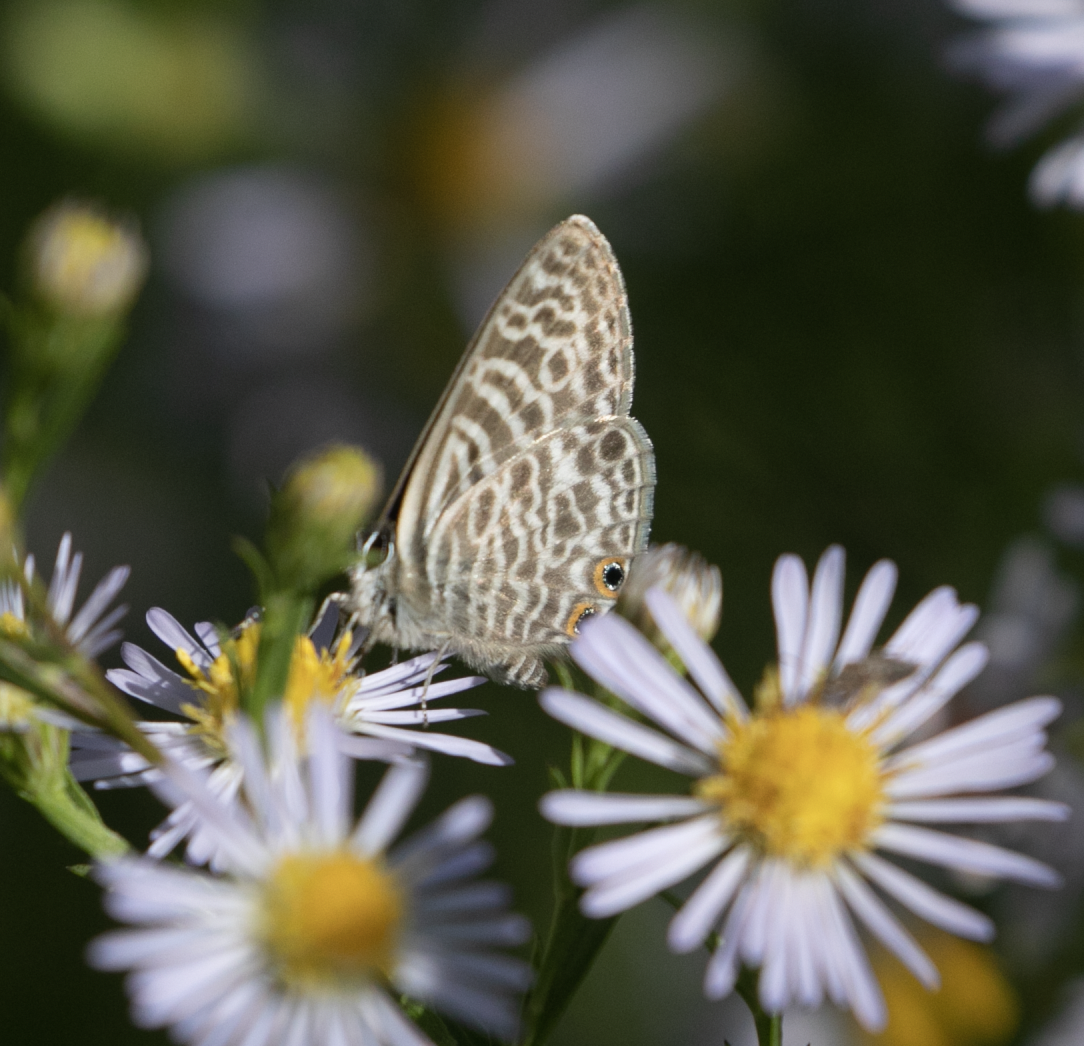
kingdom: Animalia
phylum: Arthropoda
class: Insecta
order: Lepidoptera
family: Lycaenidae
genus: Leptotes
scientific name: Leptotes pirithous
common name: Lang's short-tailed blue
